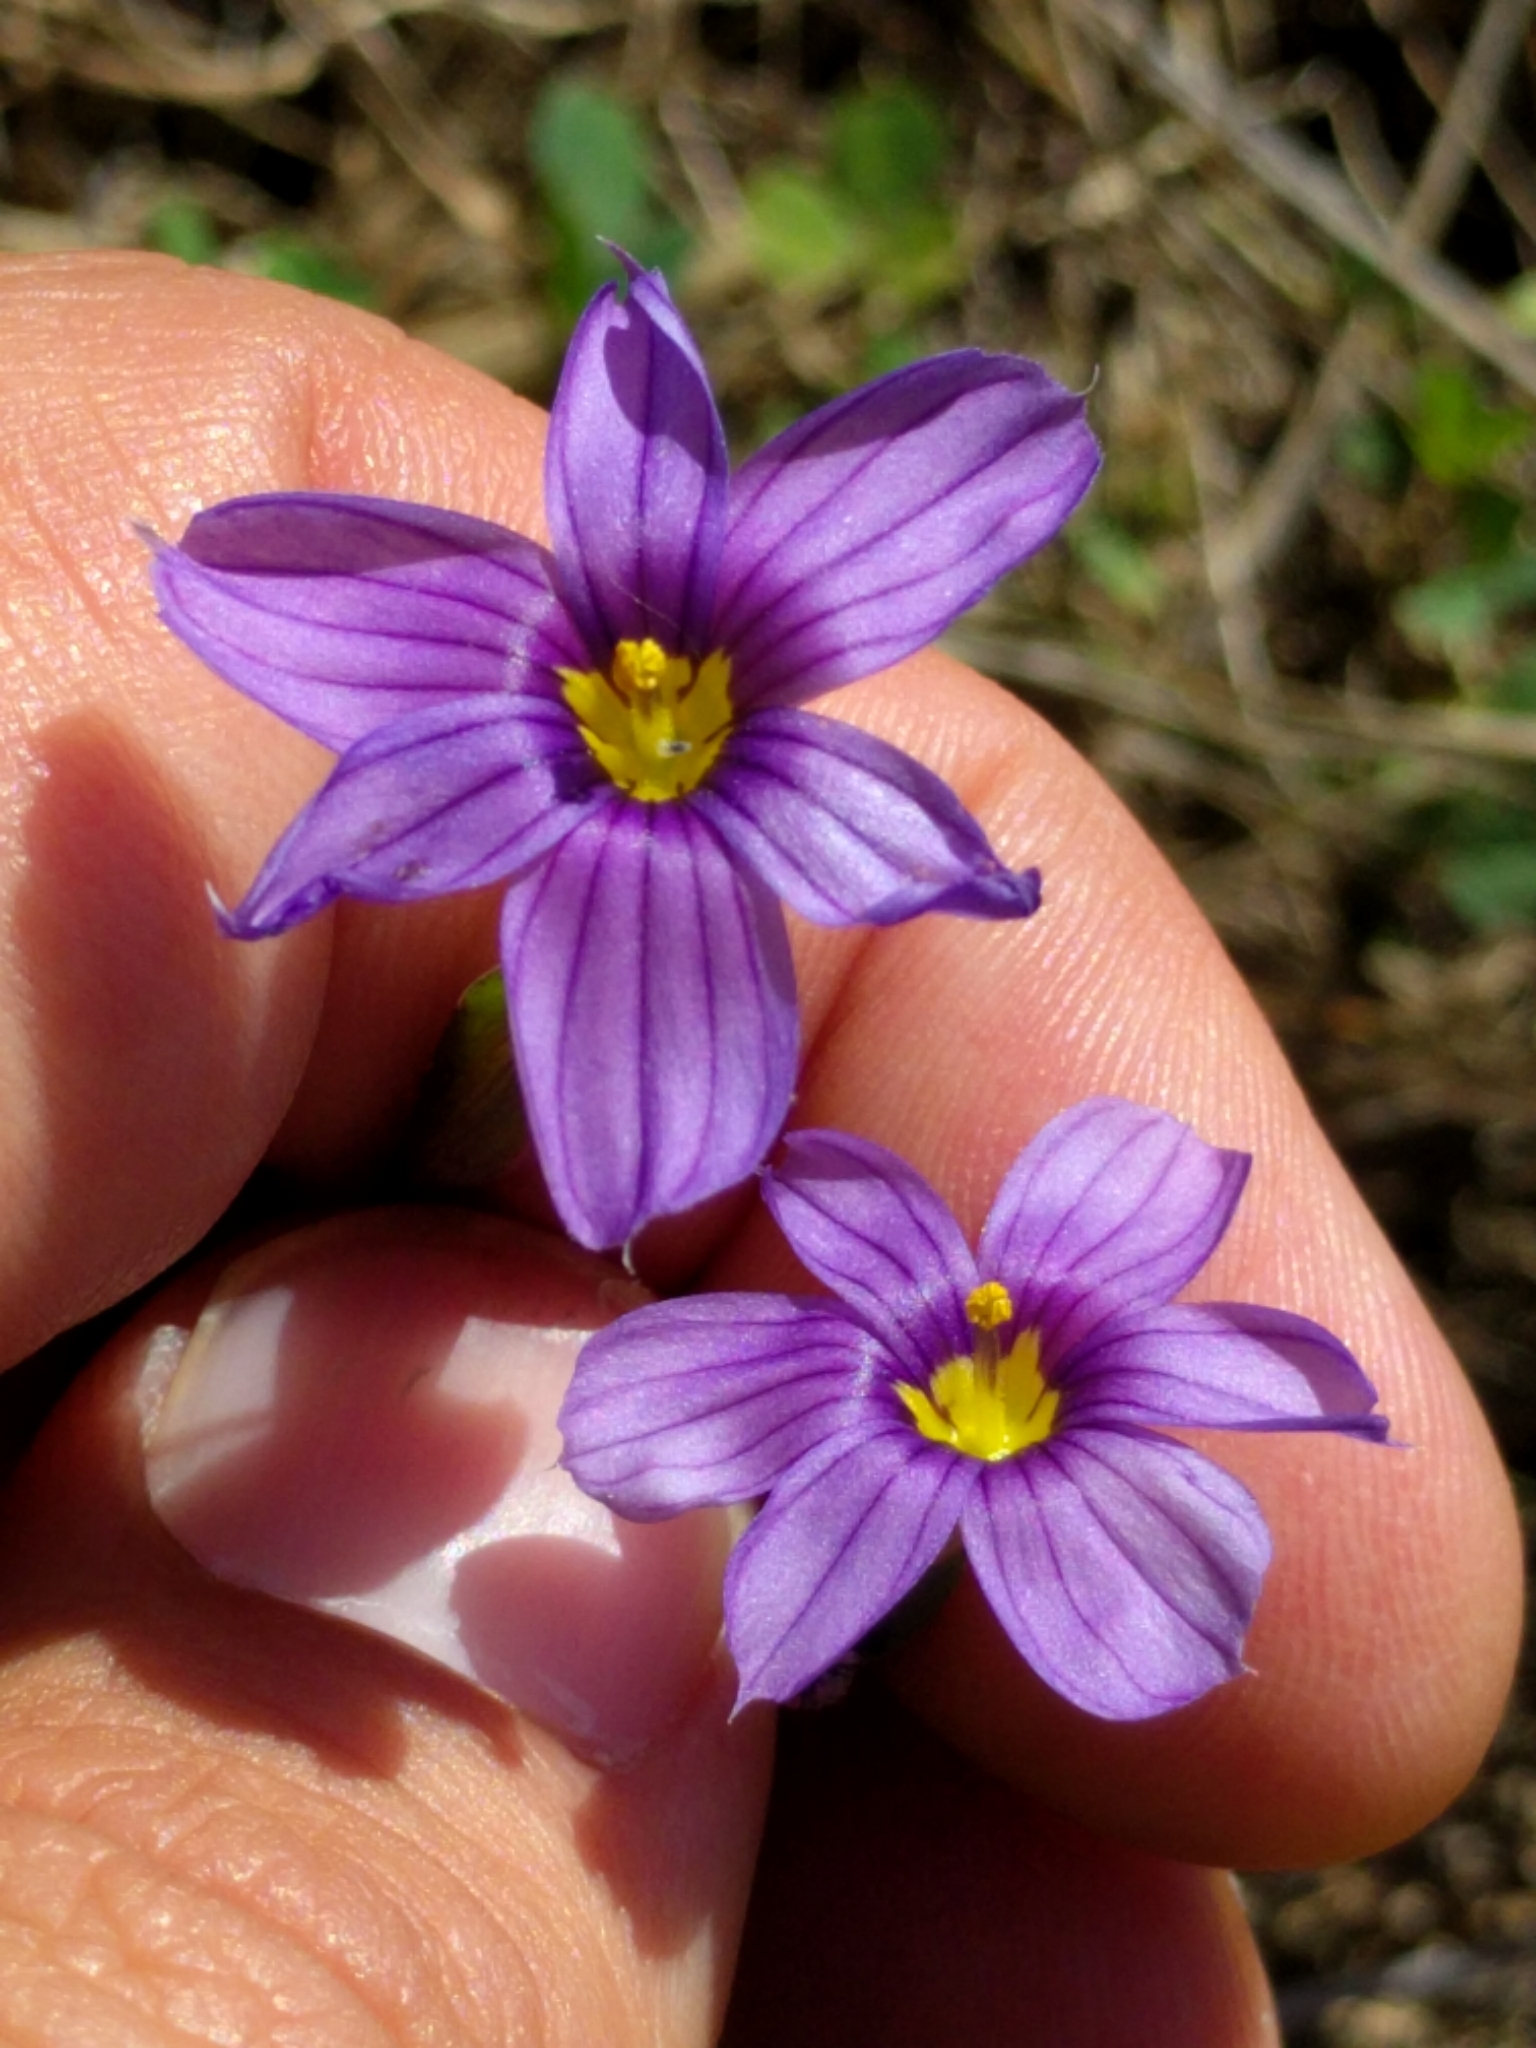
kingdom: Plantae
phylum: Tracheophyta
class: Liliopsida
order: Asparagales
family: Iridaceae
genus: Sisyrinchium
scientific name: Sisyrinchium bellum
